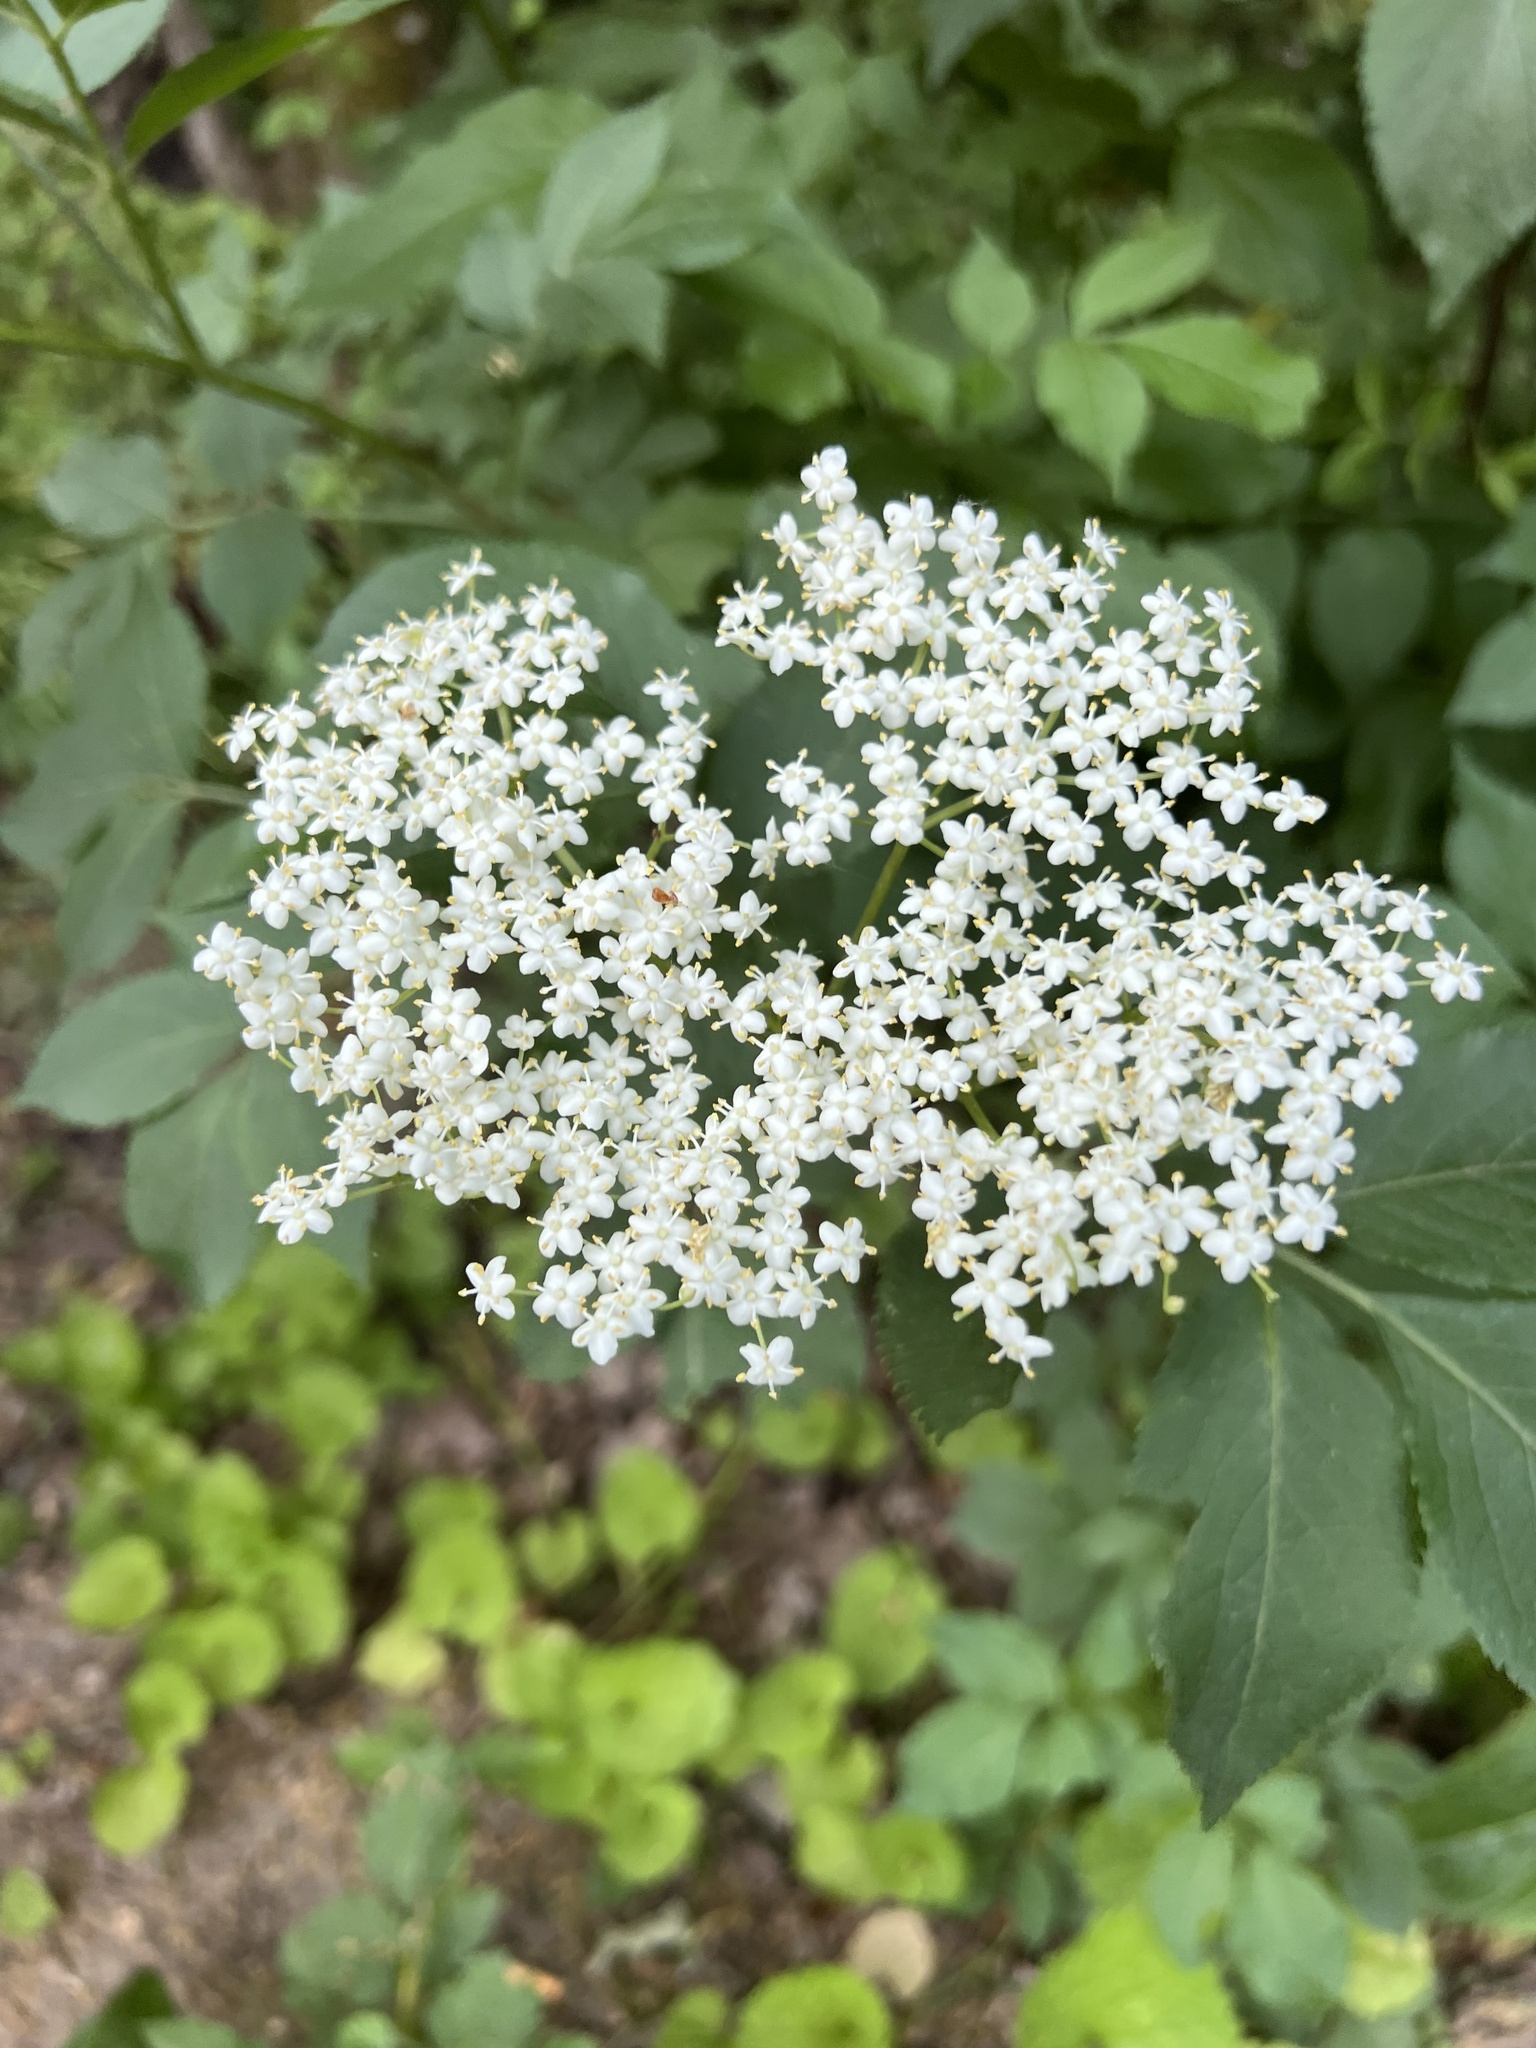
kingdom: Plantae
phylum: Tracheophyta
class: Magnoliopsida
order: Dipsacales
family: Viburnaceae
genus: Sambucus
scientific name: Sambucus nigra
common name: Elder
